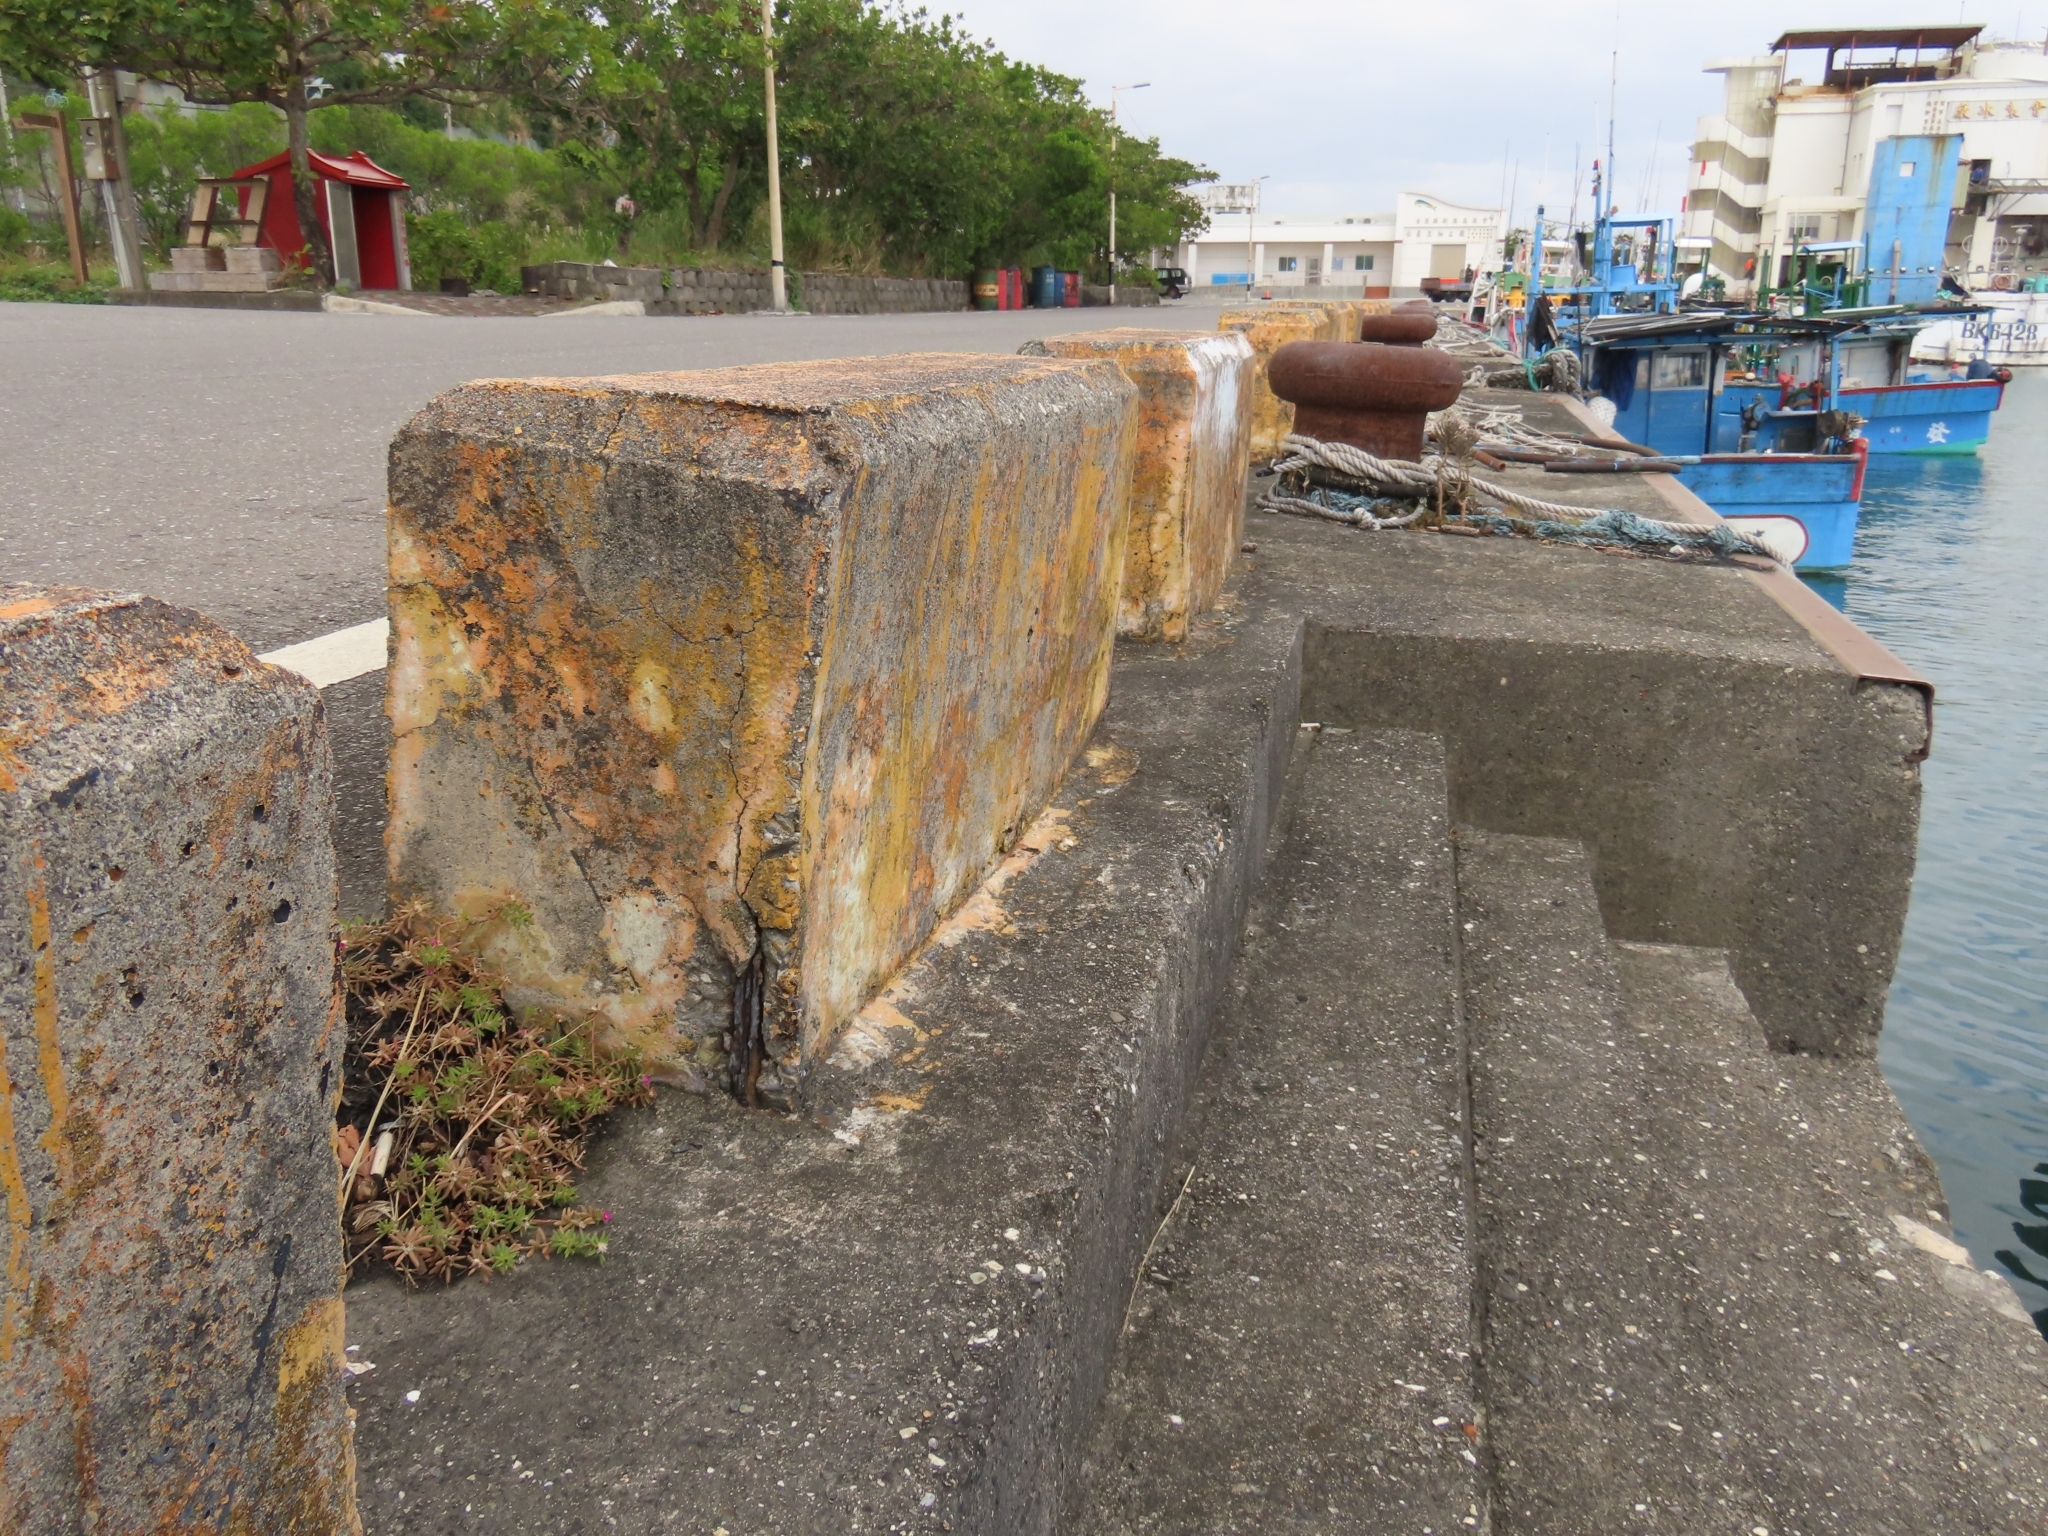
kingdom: Plantae
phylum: Tracheophyta
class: Magnoliopsida
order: Caryophyllales
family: Portulacaceae
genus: Portulaca
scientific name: Portulaca pilosa
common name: Kiss me quick
